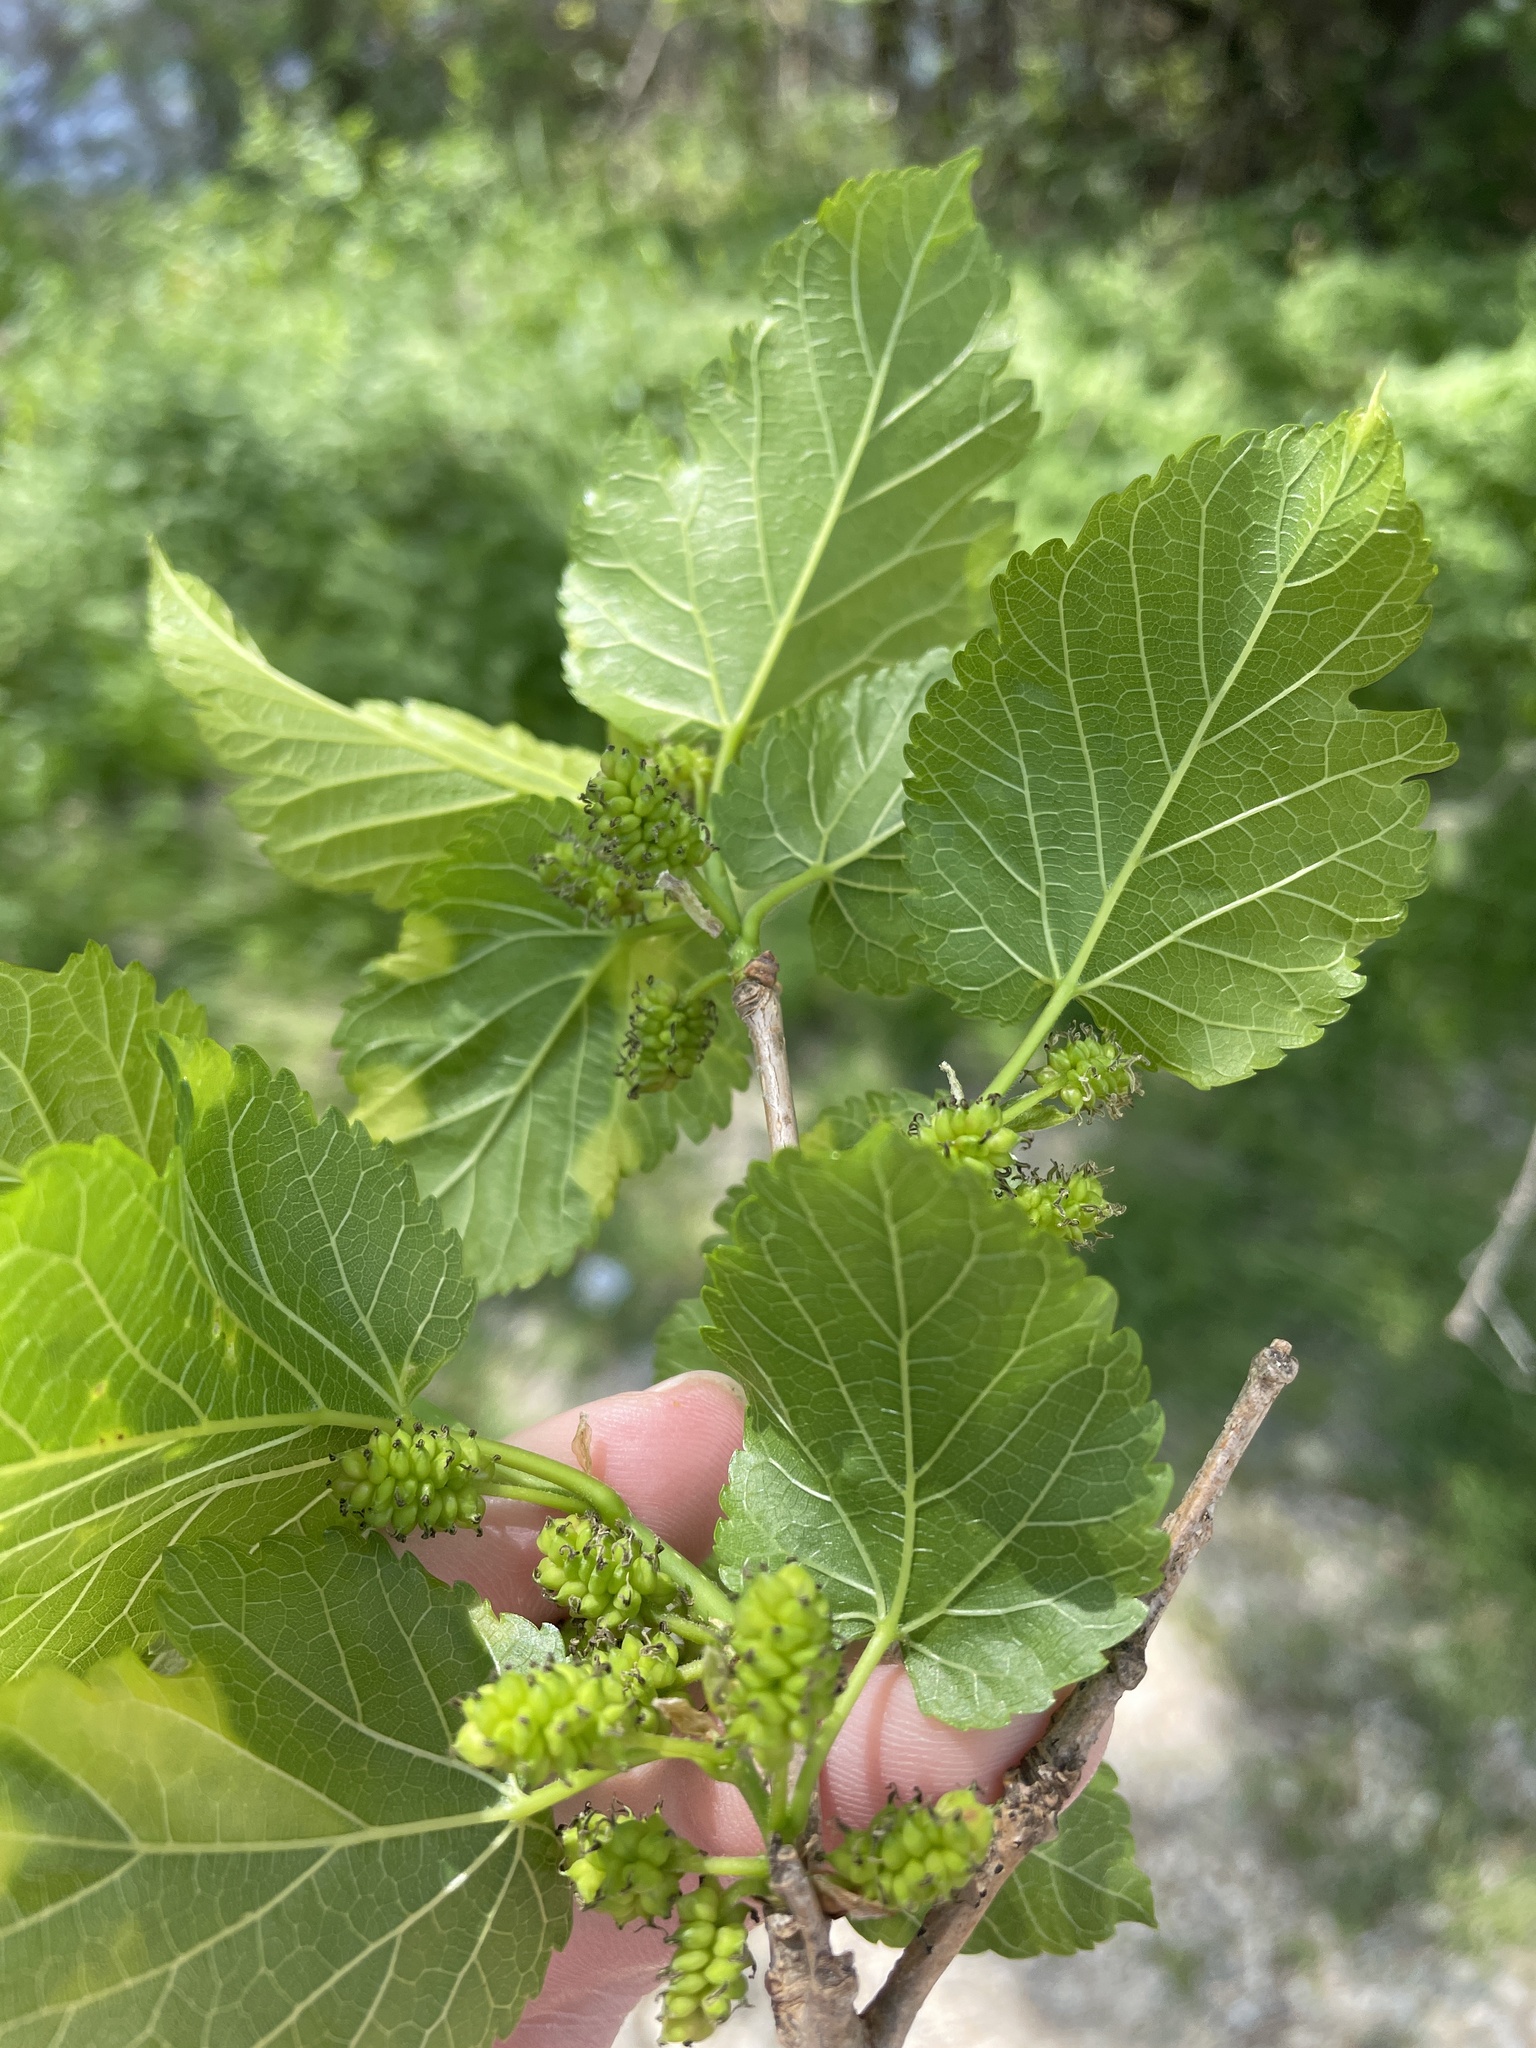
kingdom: Plantae
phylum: Tracheophyta
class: Magnoliopsida
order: Rosales
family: Moraceae
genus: Morus
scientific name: Morus alba
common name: White mulberry
